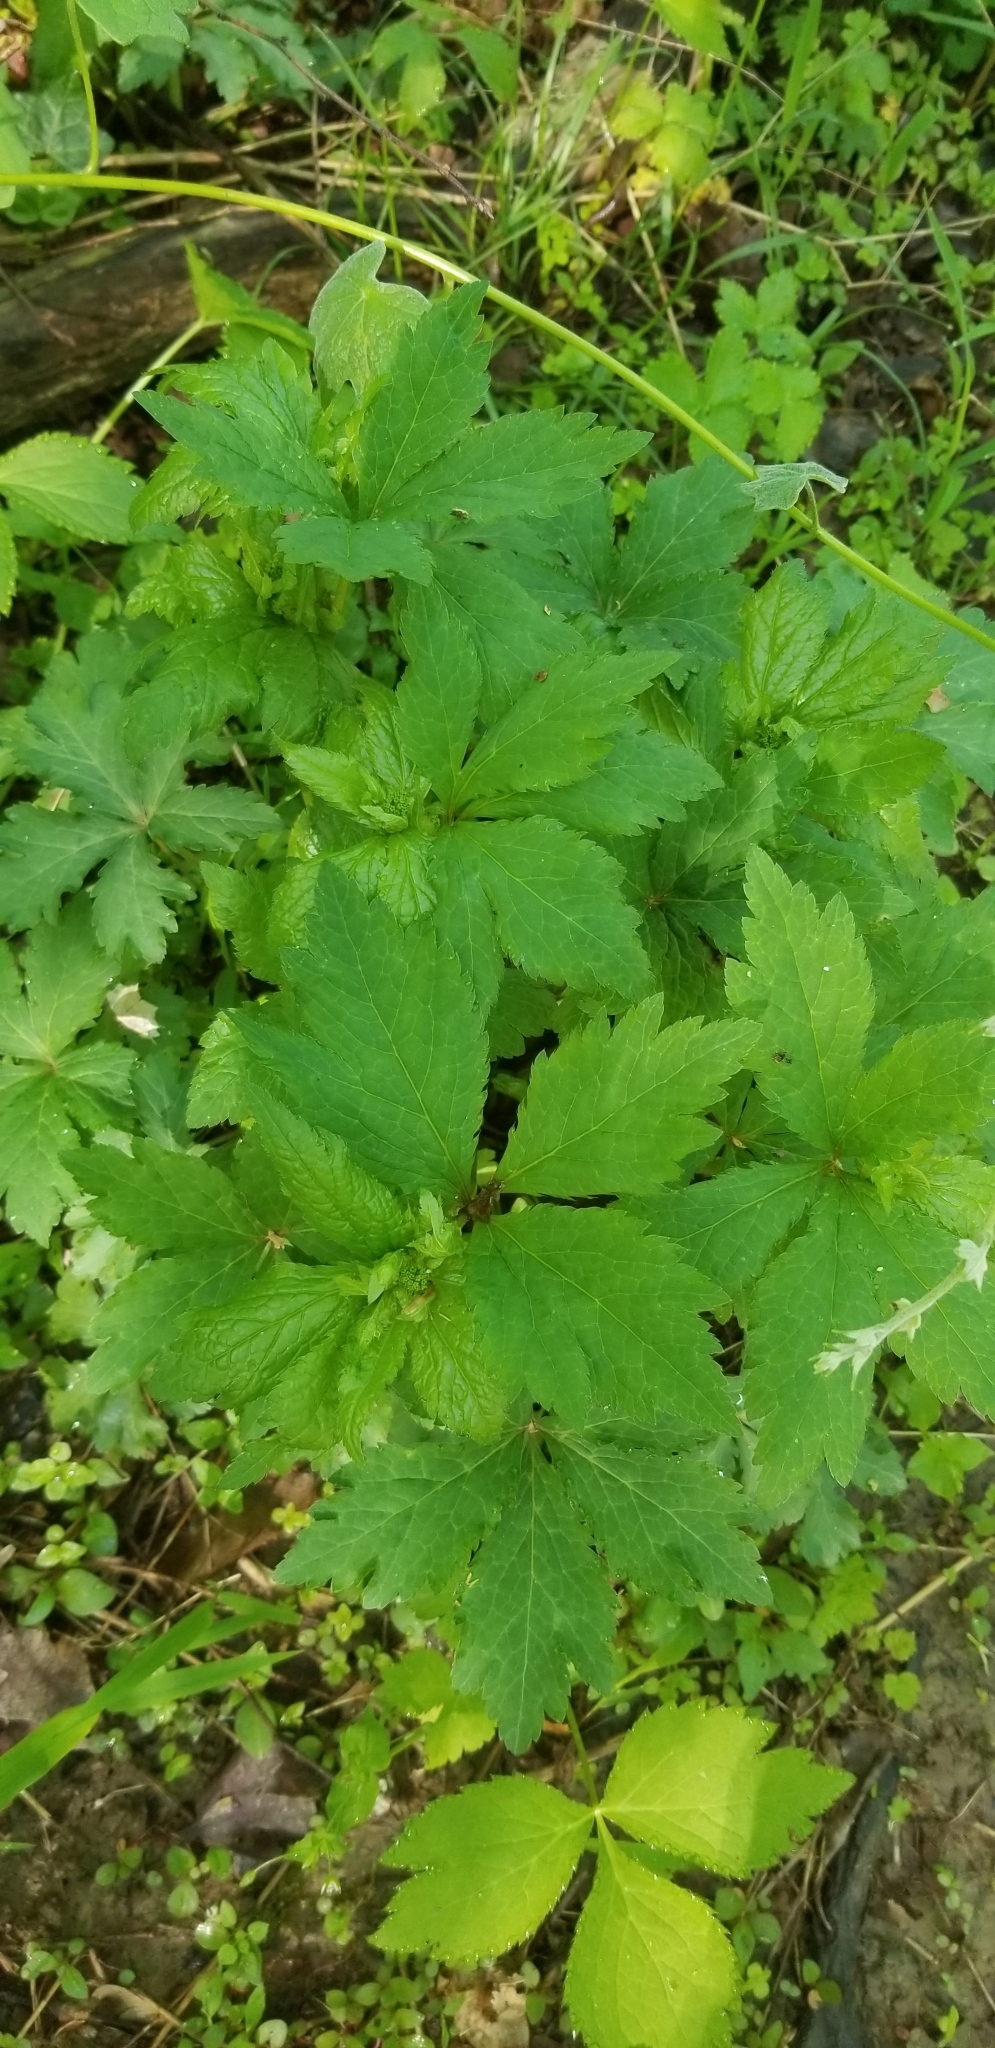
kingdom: Plantae
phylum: Tracheophyta
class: Magnoliopsida
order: Apiales
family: Apiaceae
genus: Sanicula
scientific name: Sanicula odorata
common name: Cluster sanicle
